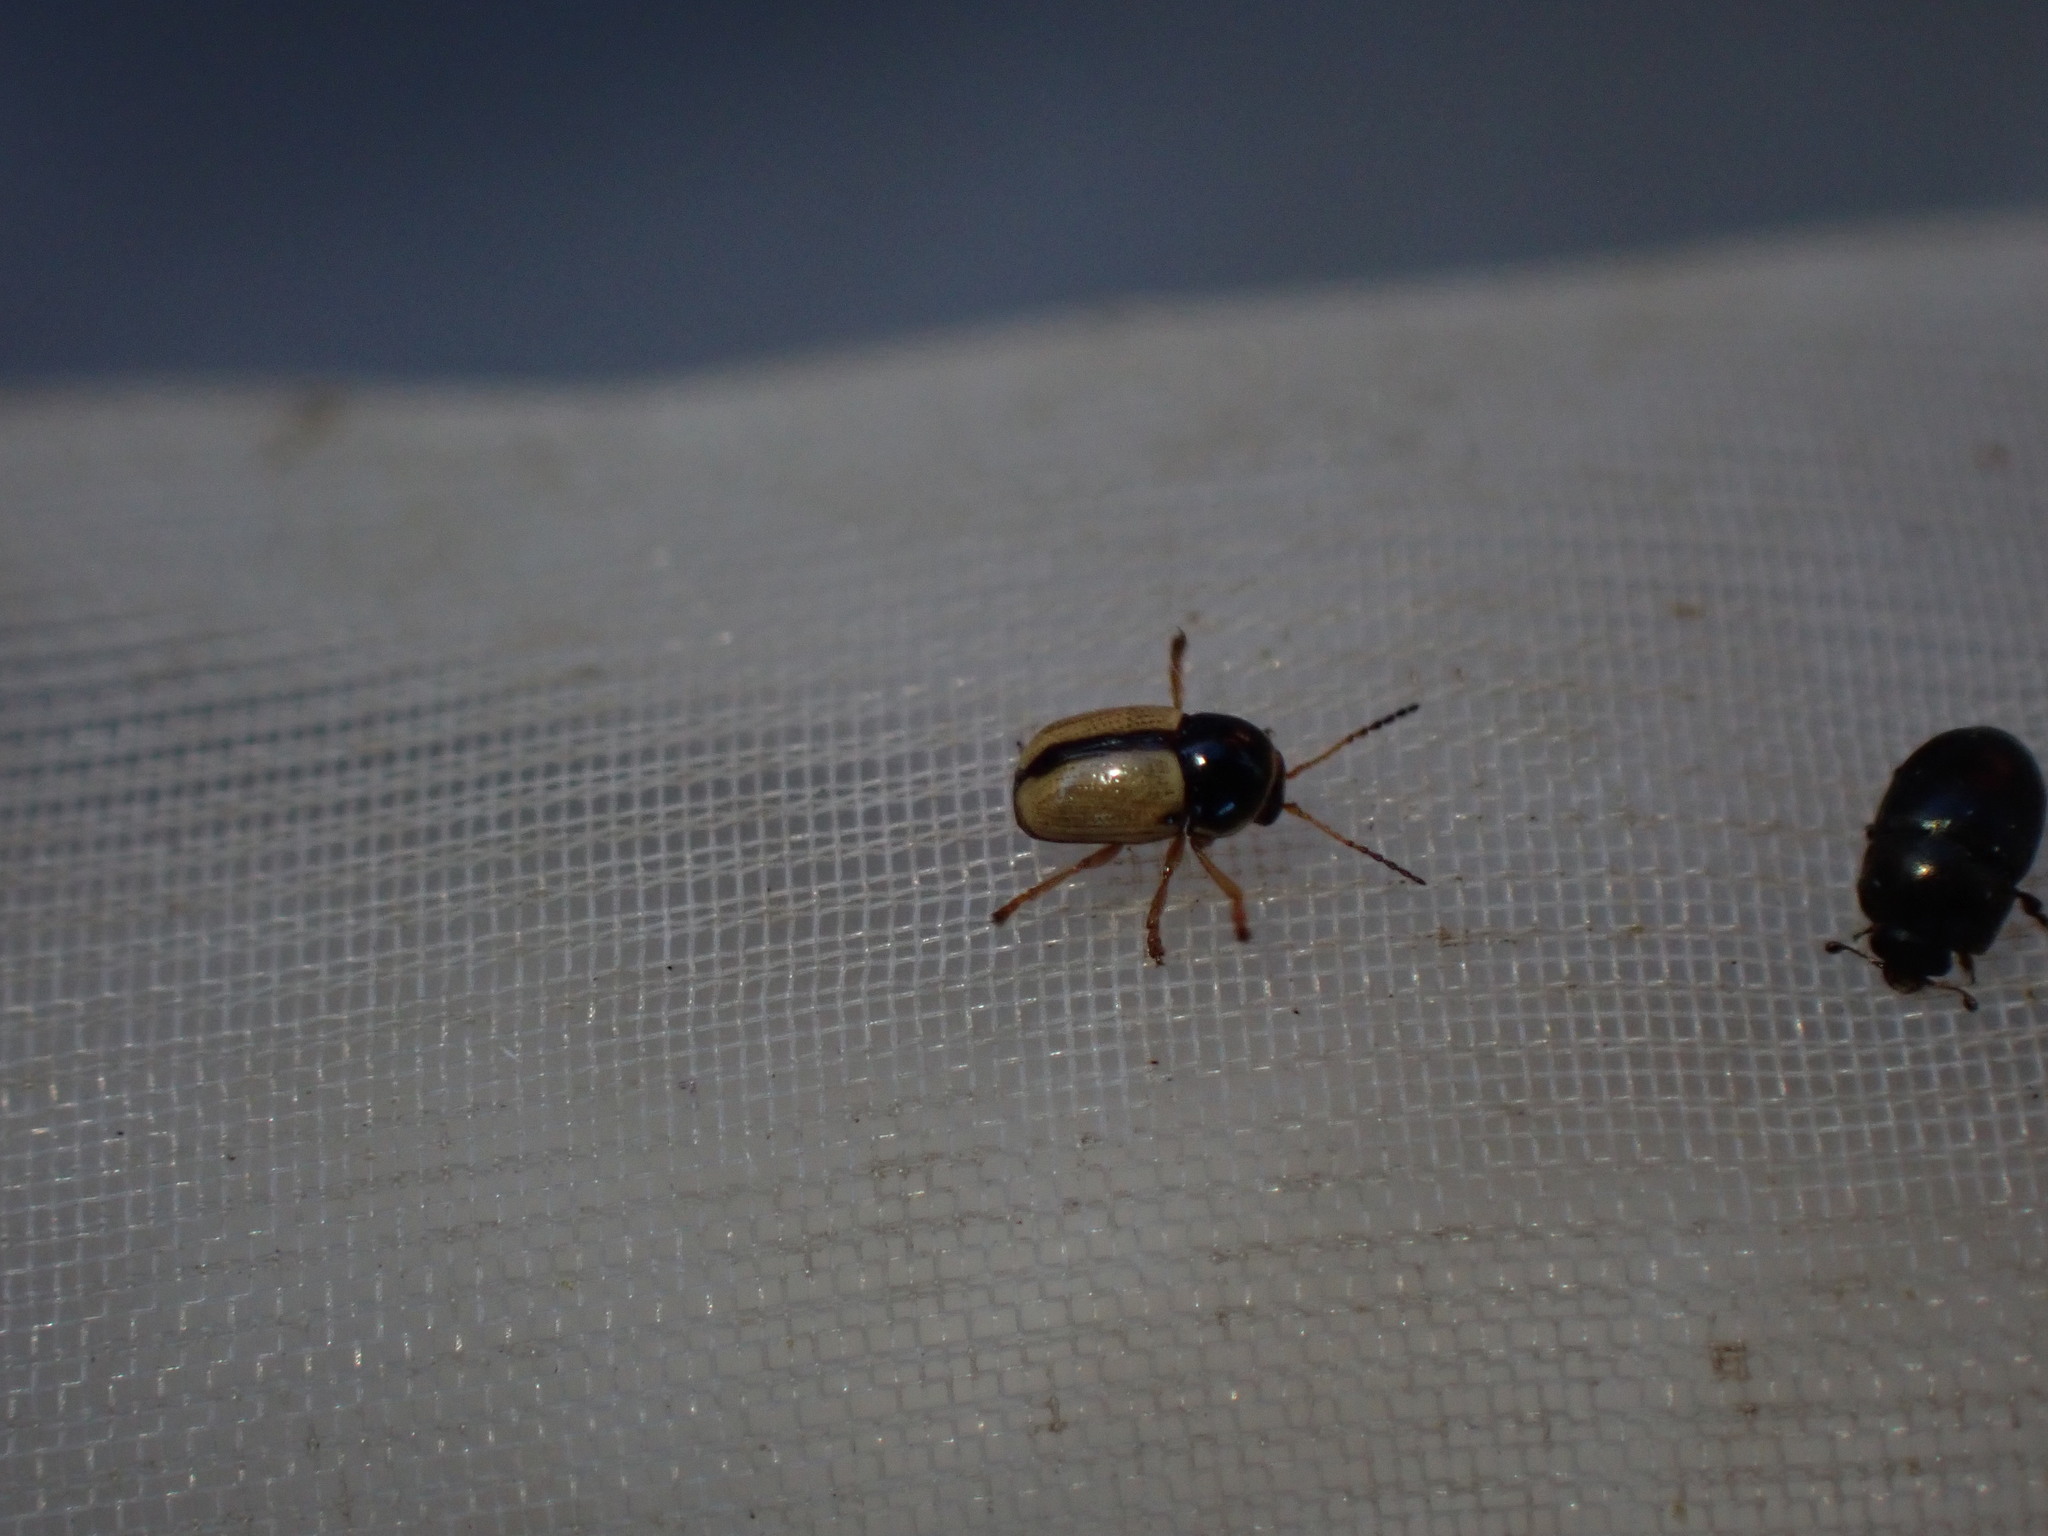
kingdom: Animalia
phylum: Arthropoda
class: Insecta
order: Coleoptera
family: Chrysomelidae
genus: Cryptocephalus
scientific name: Cryptocephalus pygmaeus
